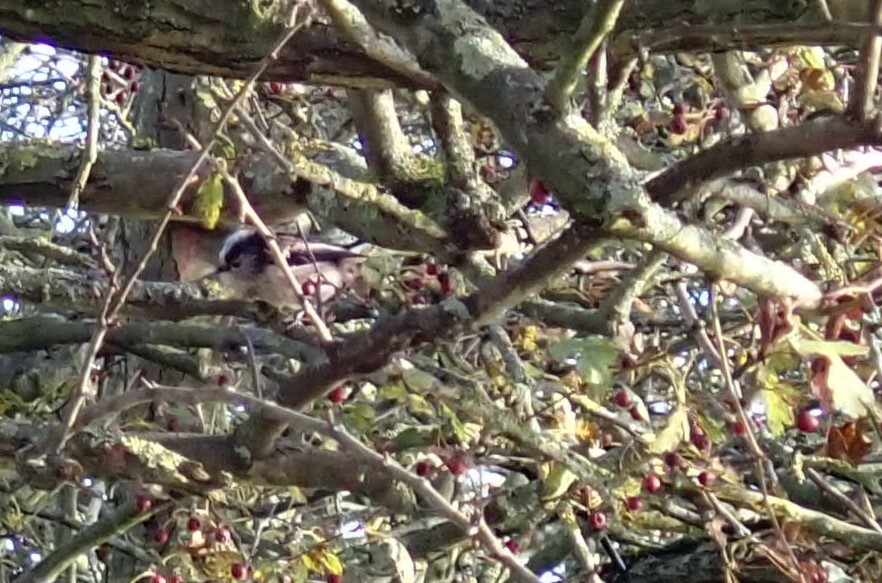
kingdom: Animalia
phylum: Chordata
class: Aves
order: Passeriformes
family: Aegithalidae
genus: Aegithalos
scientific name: Aegithalos caudatus
